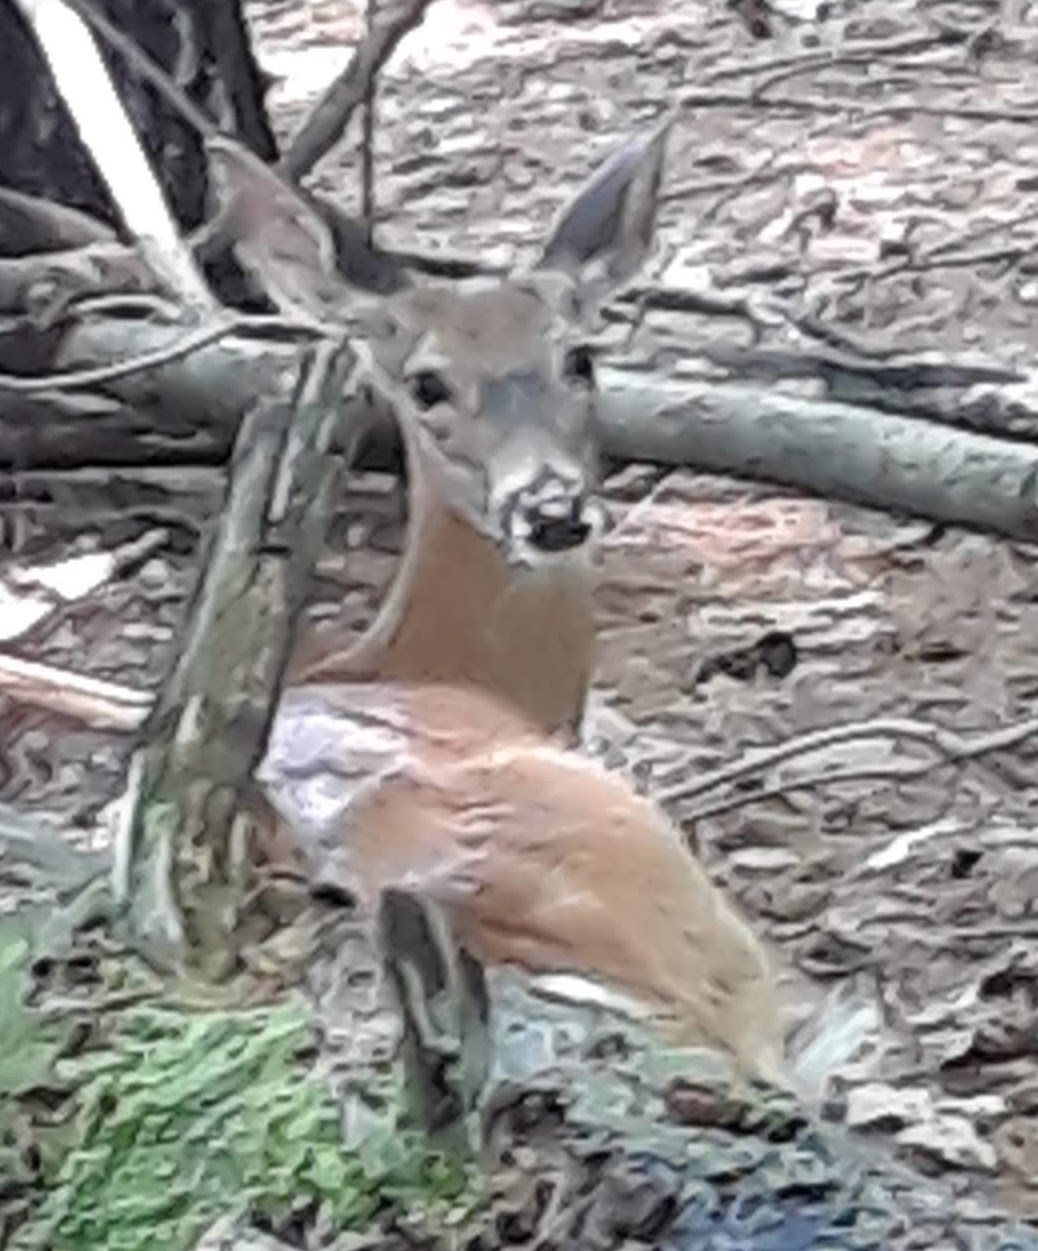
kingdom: Animalia
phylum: Chordata
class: Mammalia
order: Artiodactyla
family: Cervidae
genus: Odocoileus
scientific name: Odocoileus virginianus
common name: White-tailed deer
